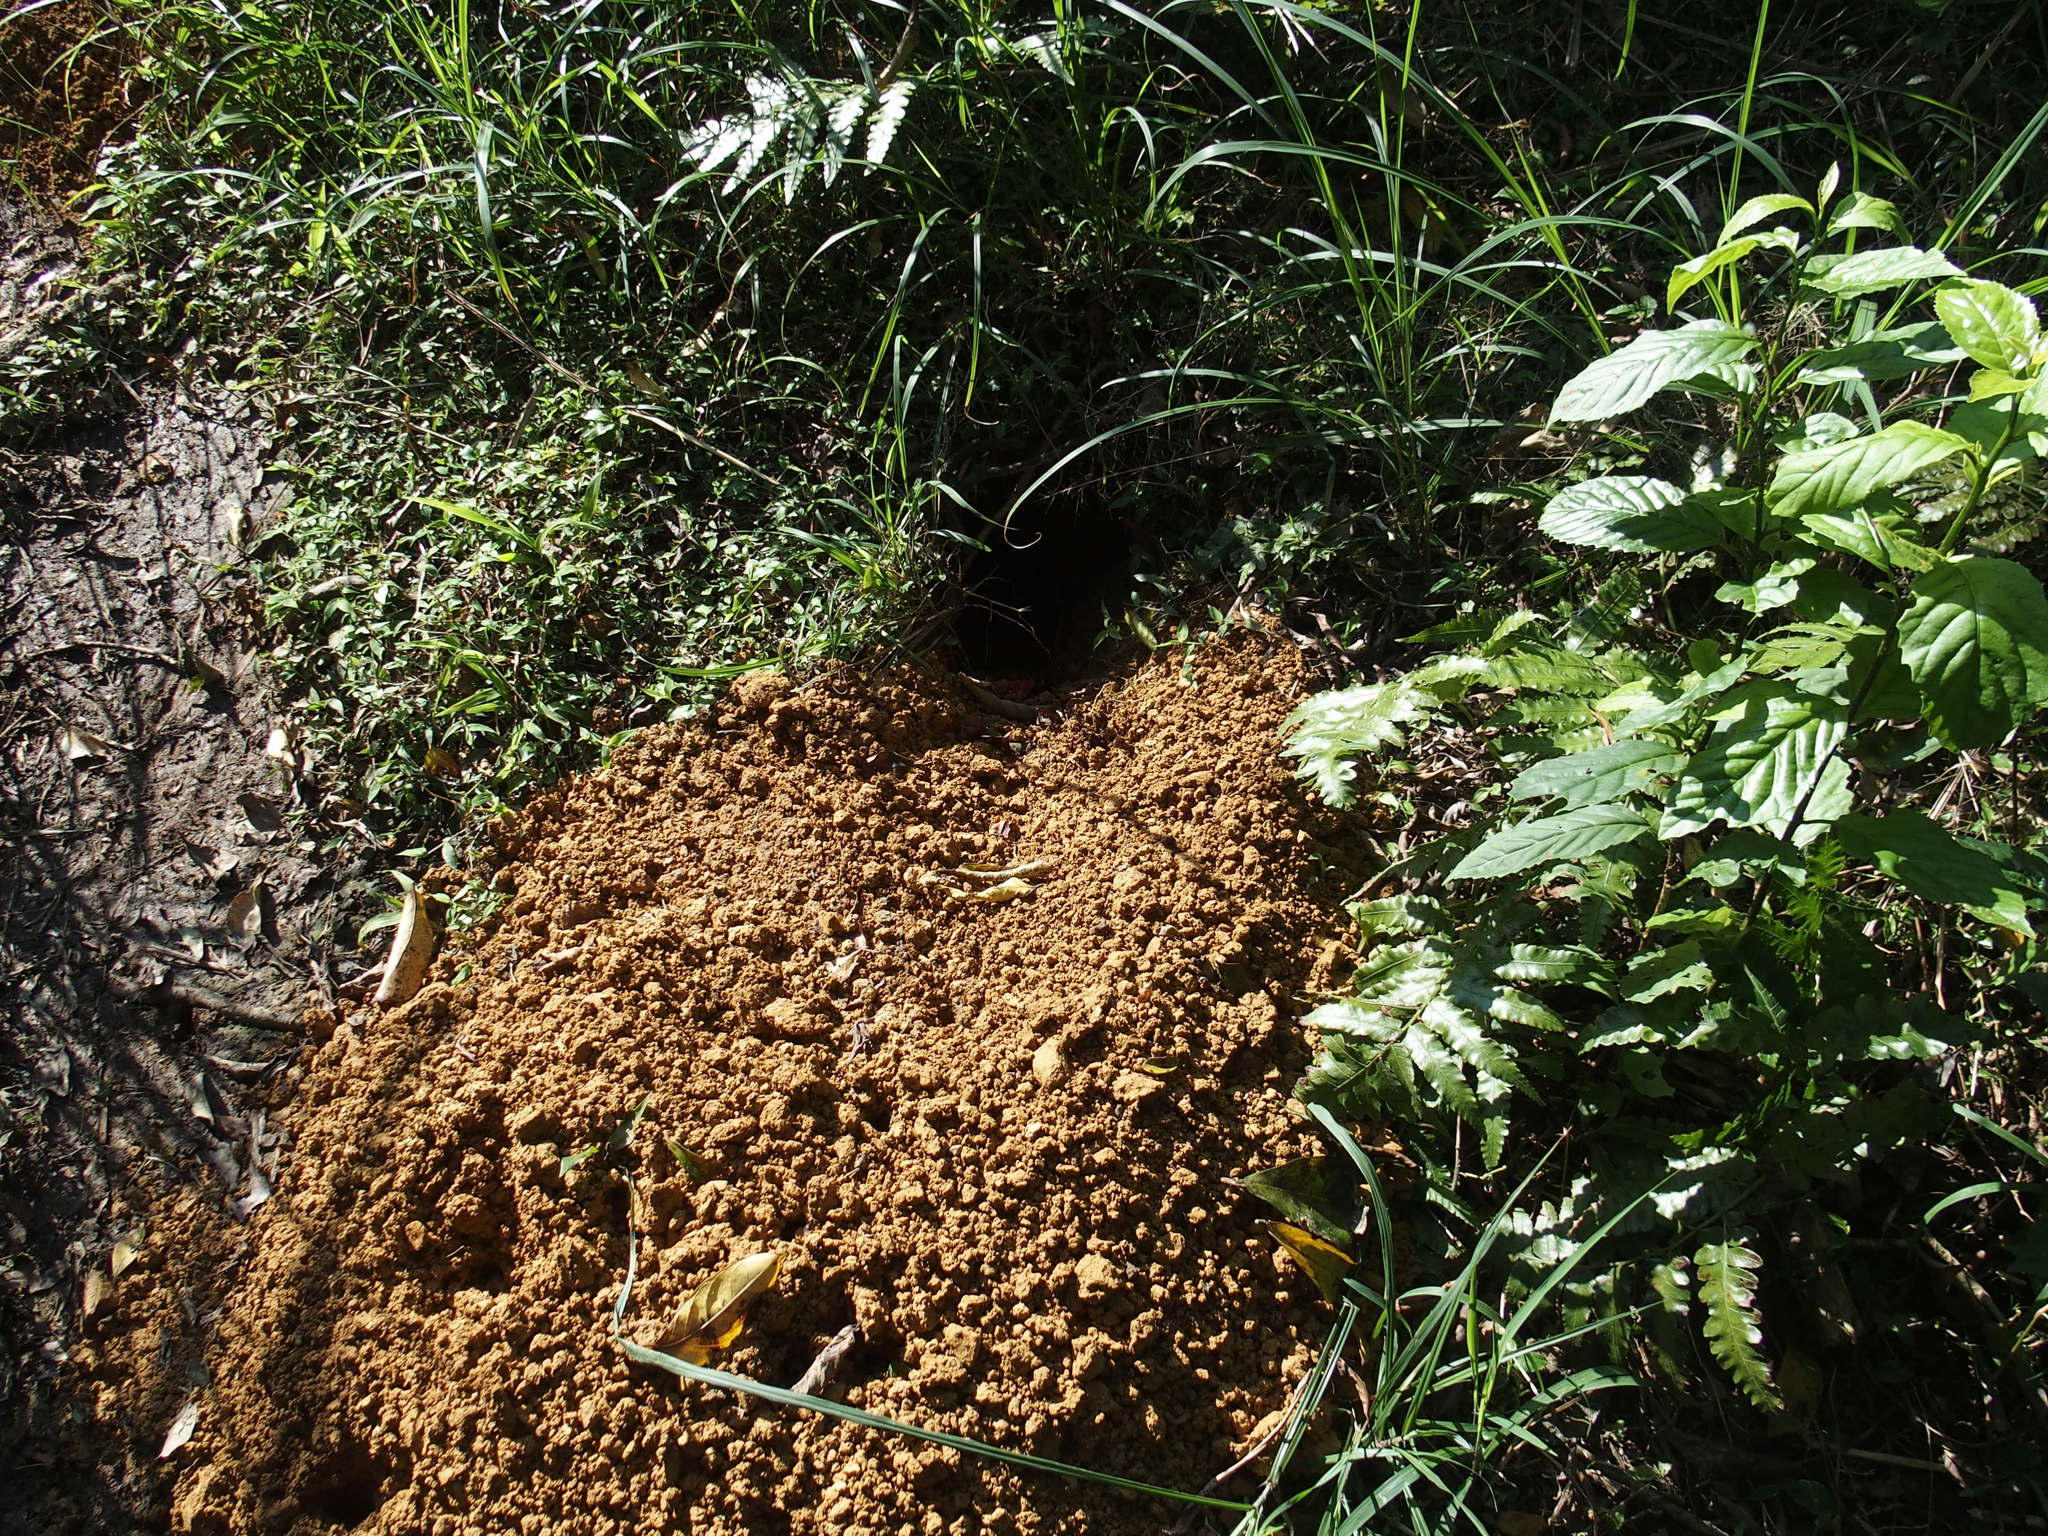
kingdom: Animalia
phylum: Chordata
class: Mammalia
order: Pholidota
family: Manidae
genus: Manis
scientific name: Manis pentadactyla
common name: Chinese pangolin
